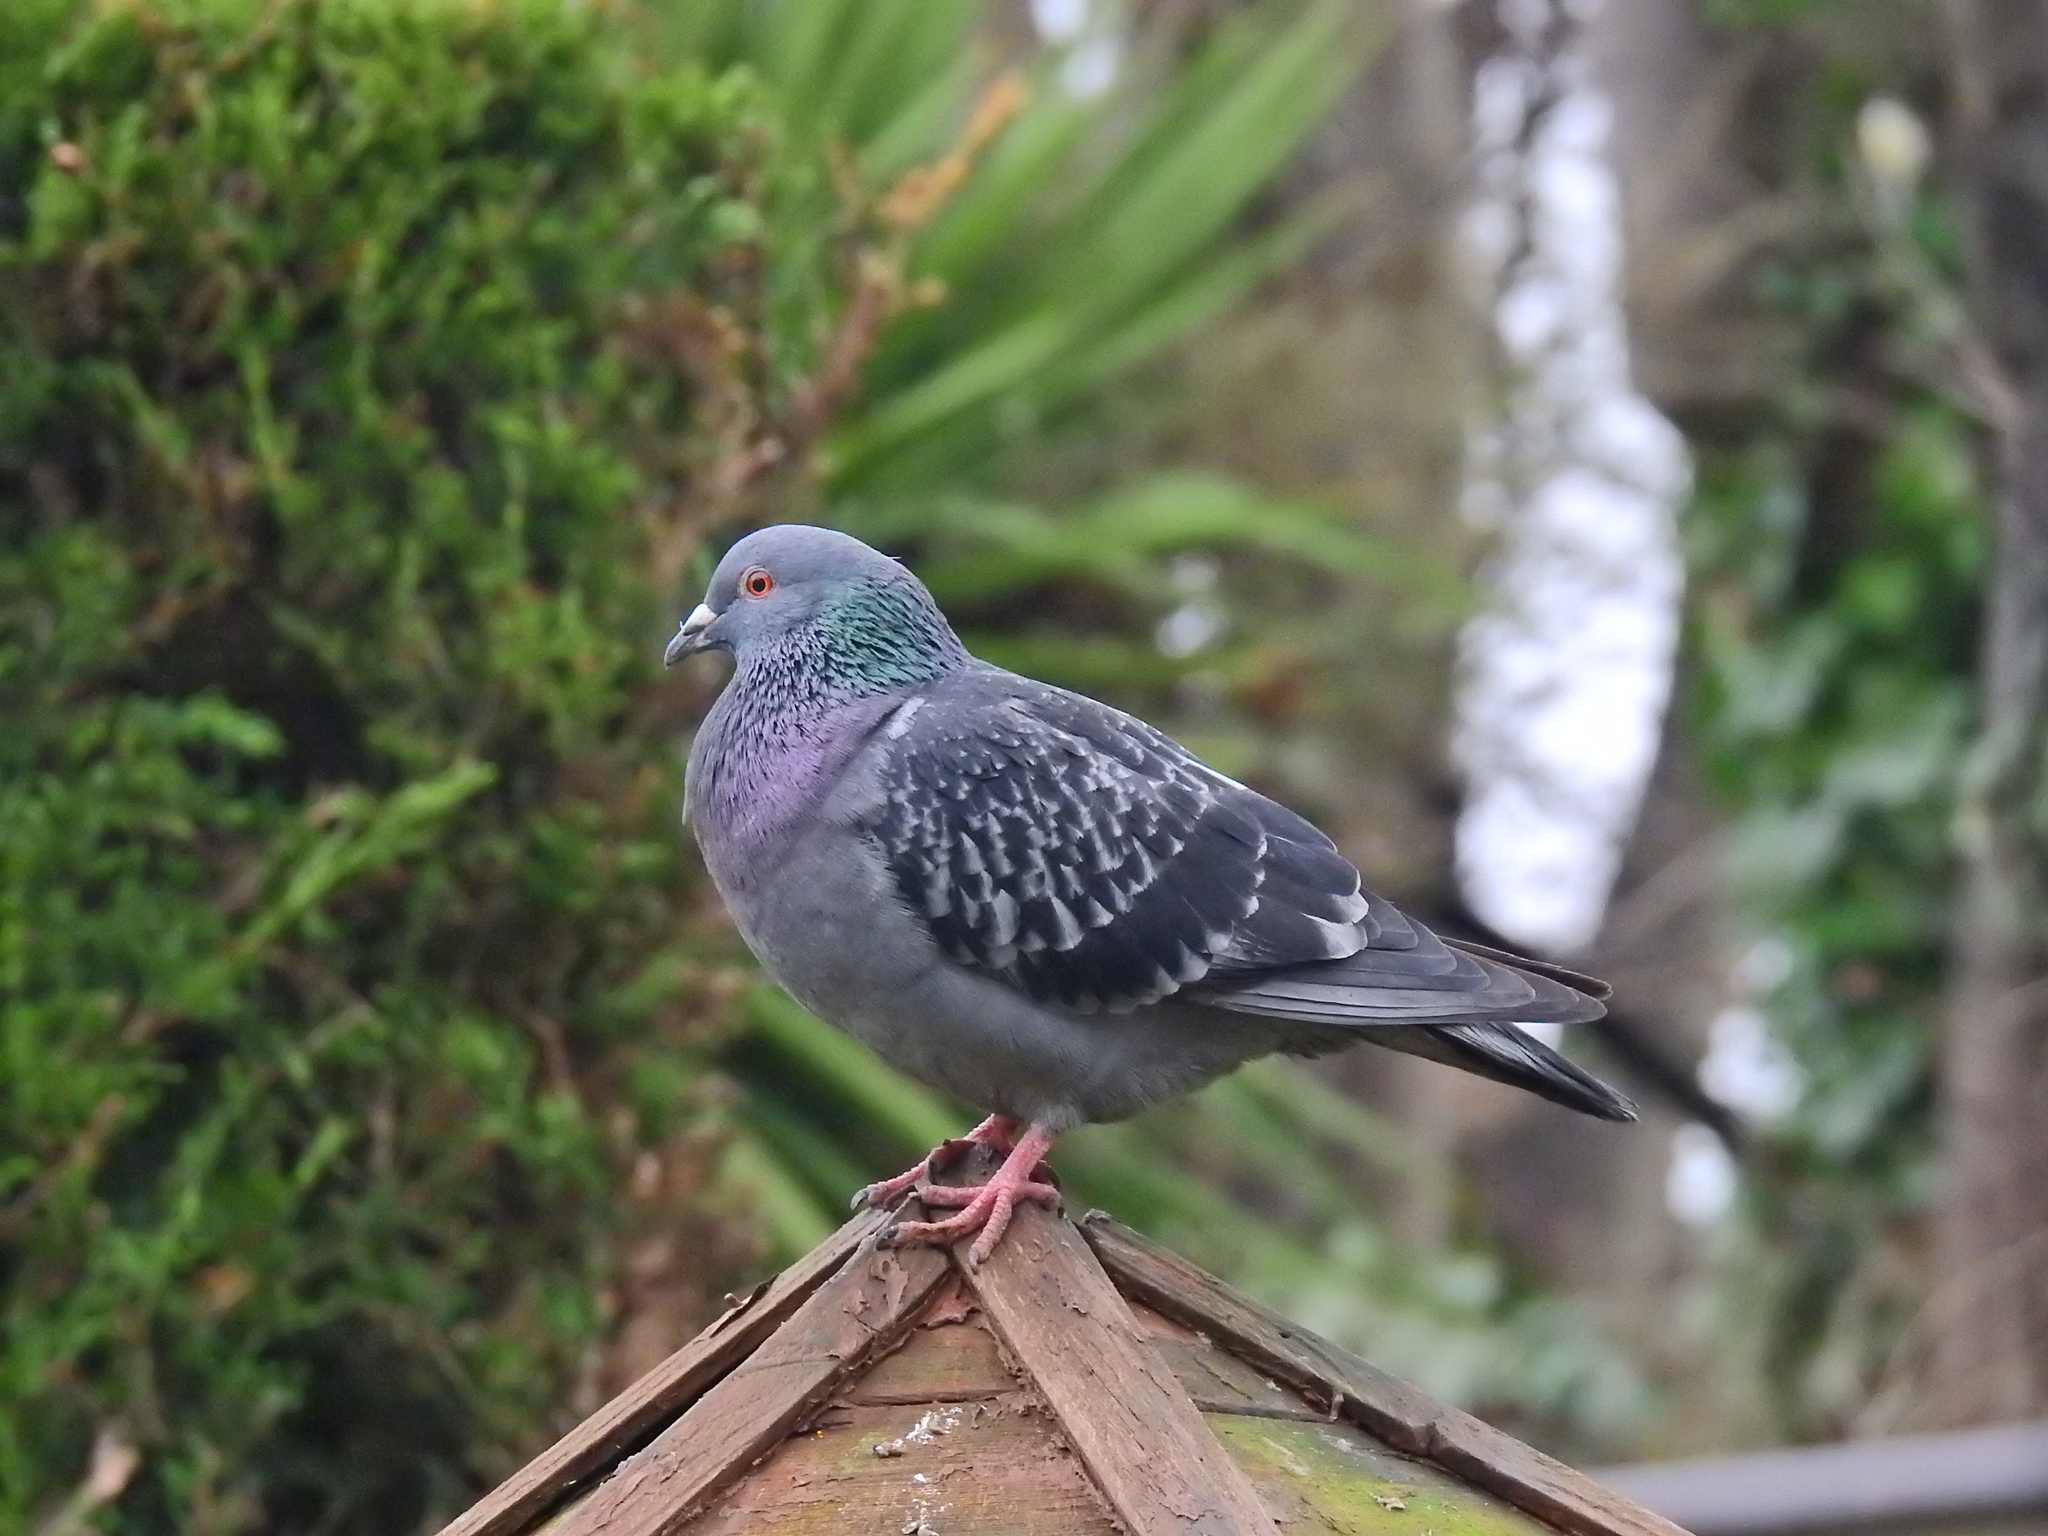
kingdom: Animalia
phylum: Chordata
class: Aves
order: Columbiformes
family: Columbidae
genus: Columba
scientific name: Columba livia
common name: Rock pigeon
